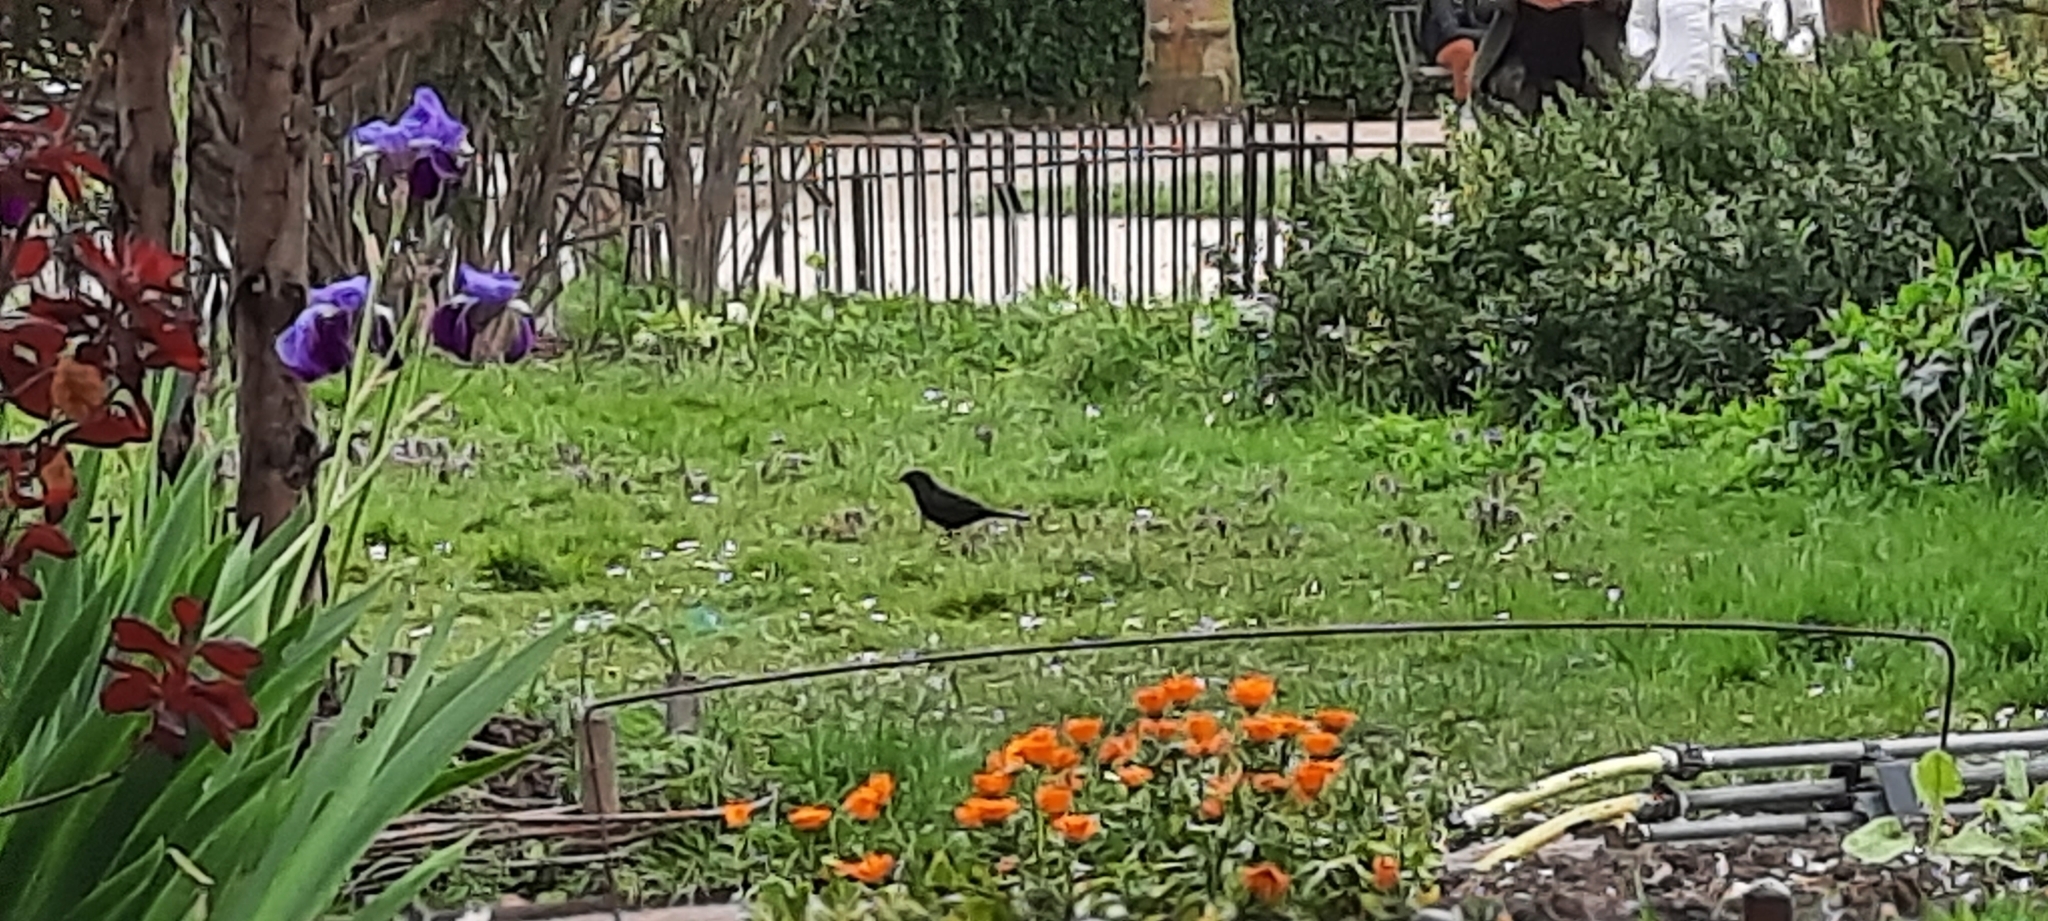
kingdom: Animalia
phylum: Chordata
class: Aves
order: Passeriformes
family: Turdidae
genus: Turdus
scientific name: Turdus merula
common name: Common blackbird
